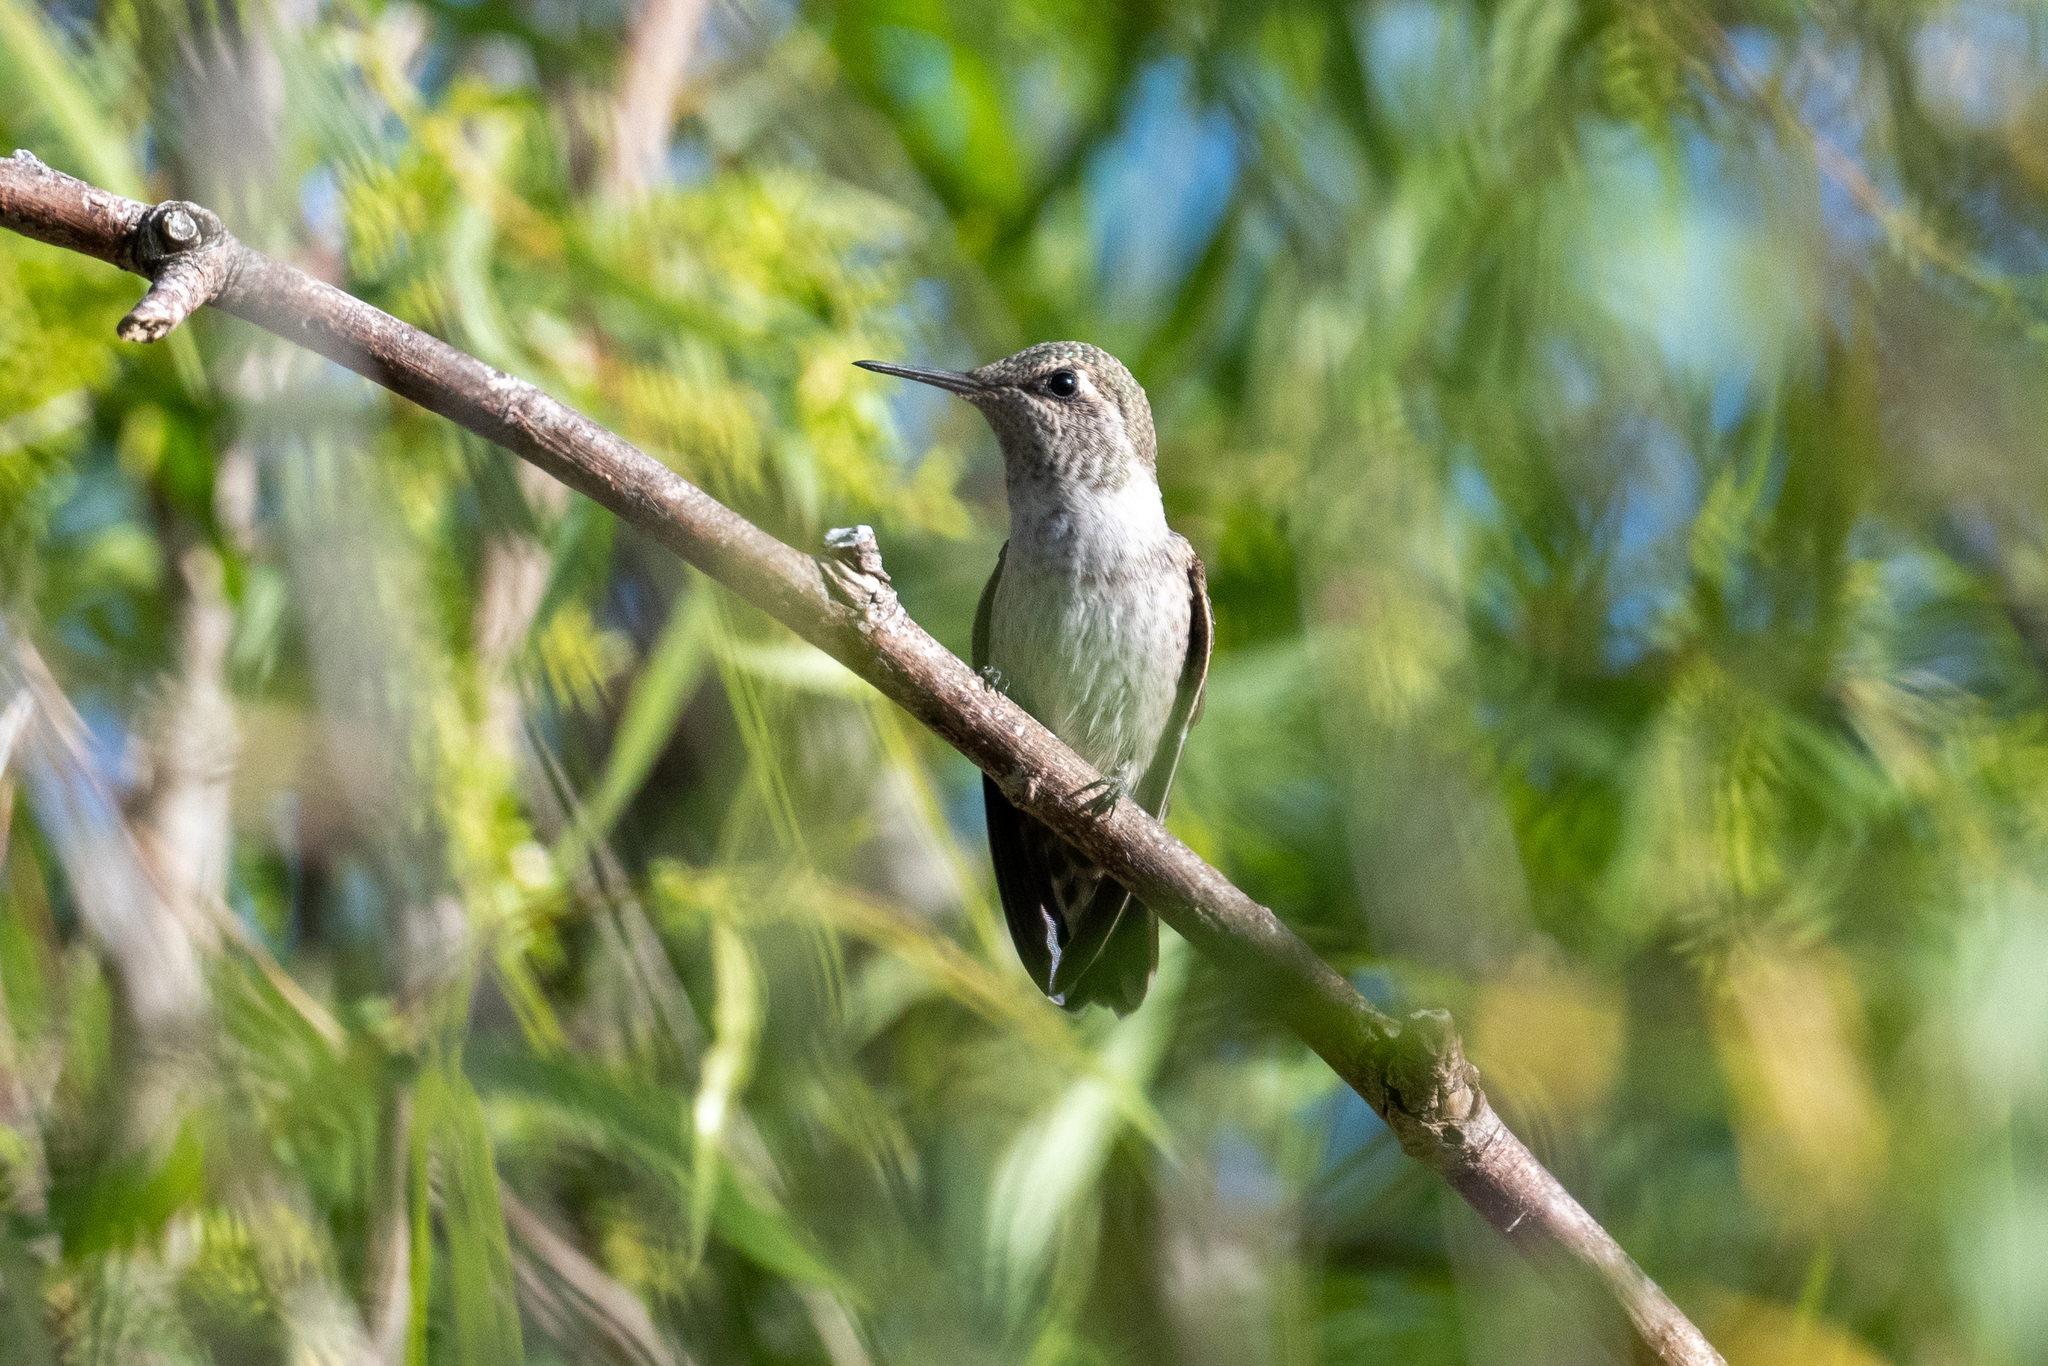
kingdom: Animalia
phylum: Chordata
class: Aves
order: Apodiformes
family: Trochilidae
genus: Calypte
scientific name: Calypte anna
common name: Anna's hummingbird
